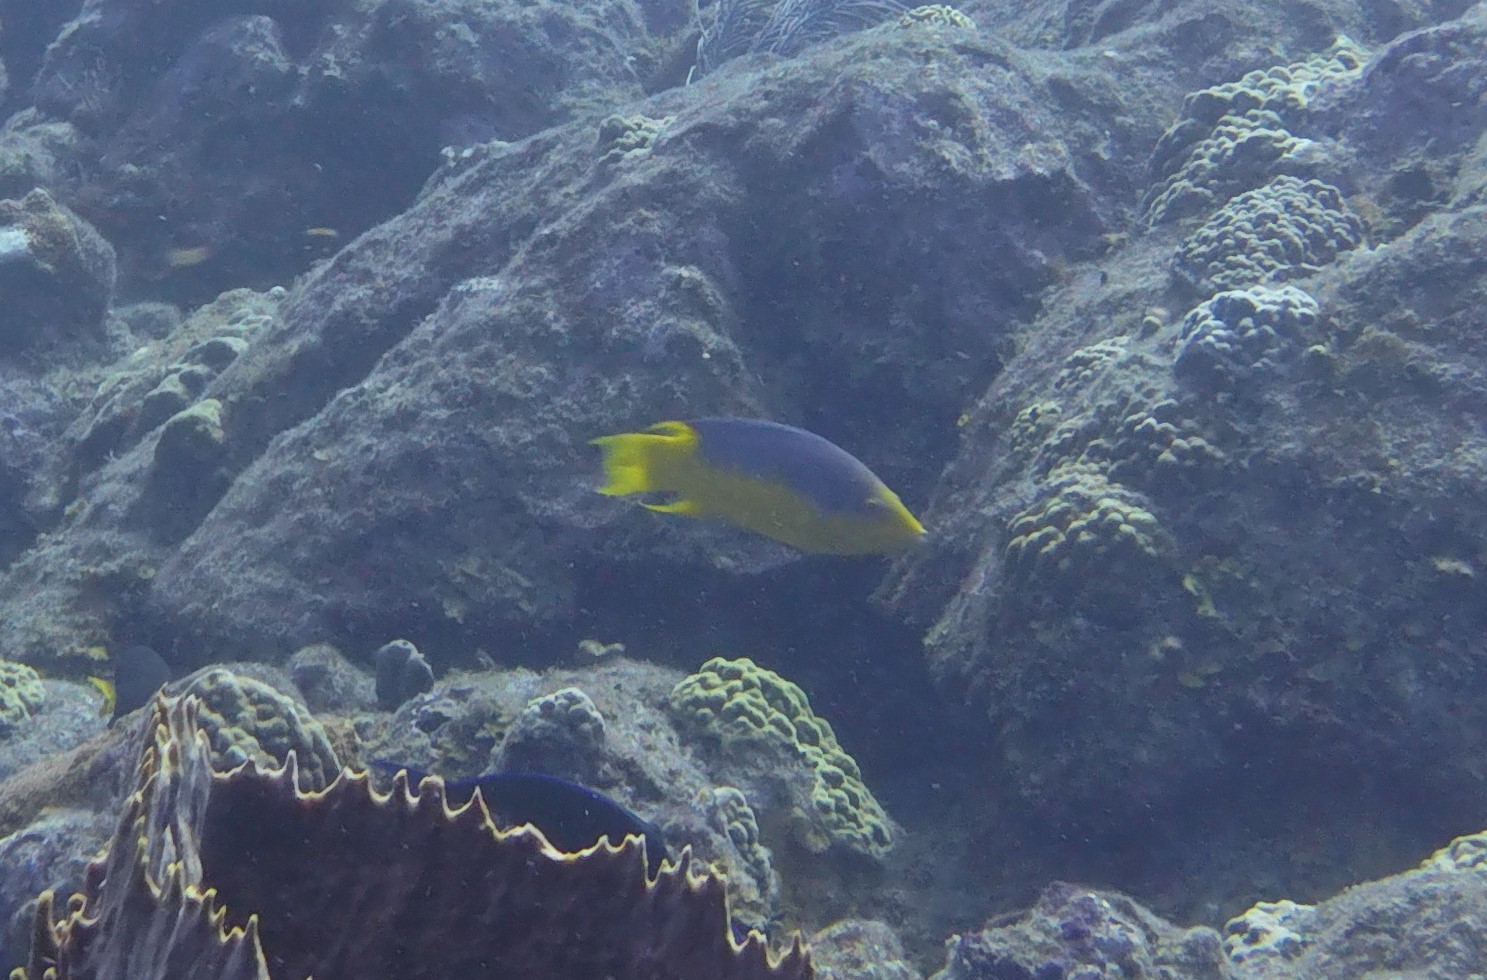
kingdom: Animalia
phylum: Chordata
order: Perciformes
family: Labridae
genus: Bodianus
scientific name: Bodianus rufus
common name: Spanish hogfish
